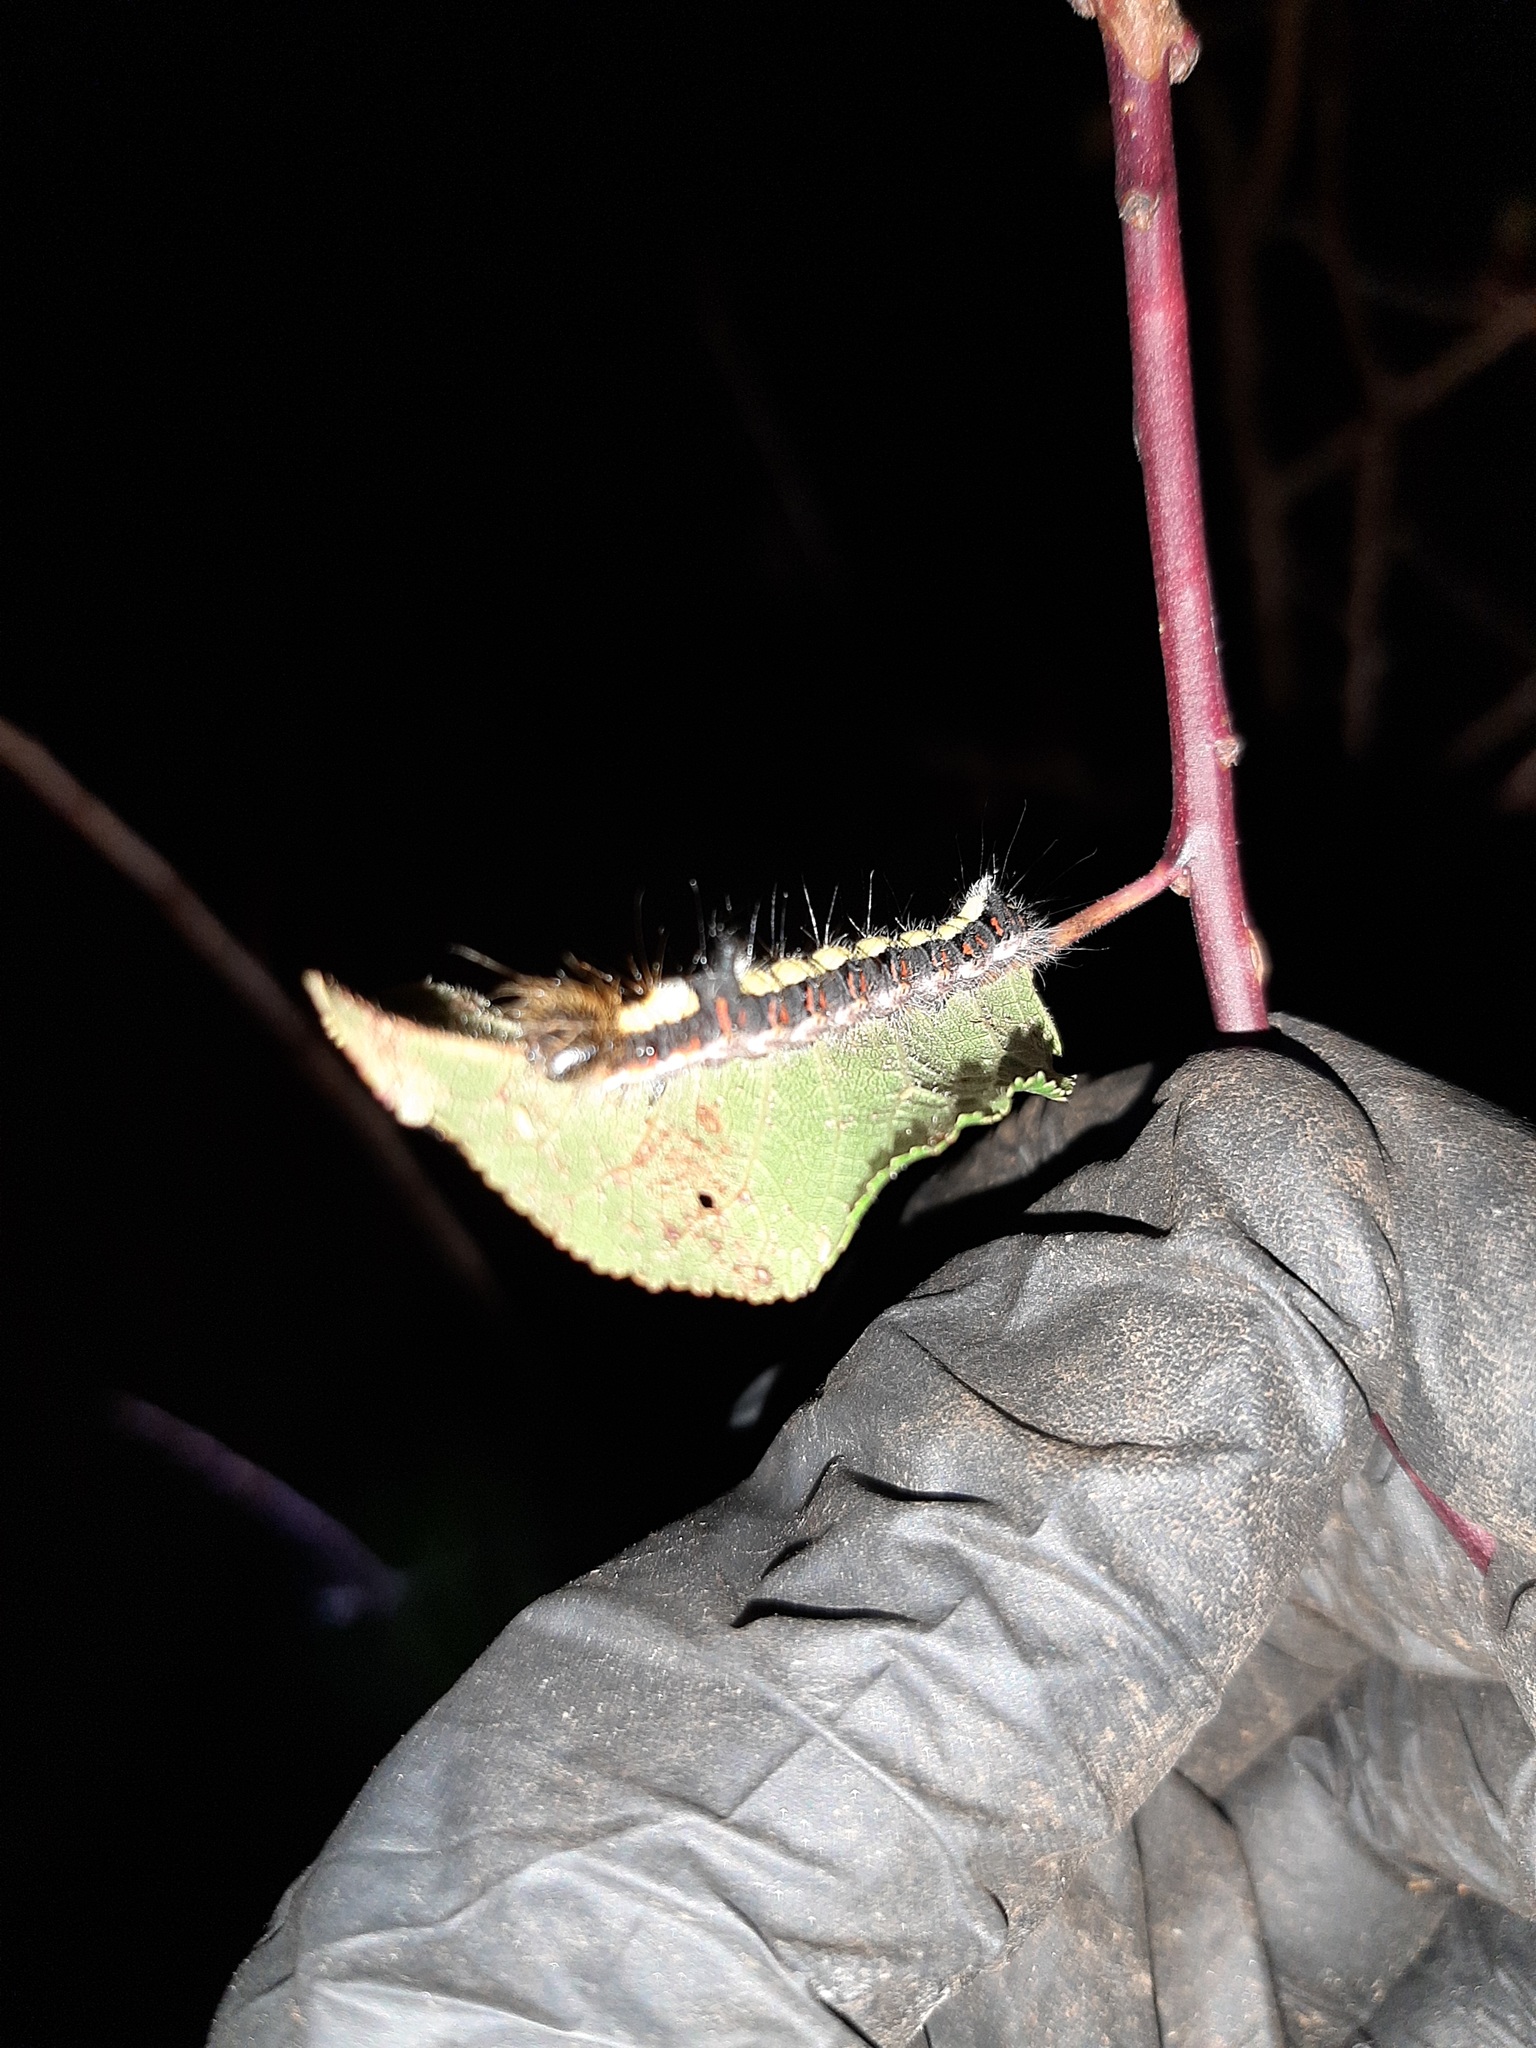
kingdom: Animalia
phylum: Arthropoda
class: Insecta
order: Lepidoptera
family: Noctuidae
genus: Acronicta
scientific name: Acronicta psi
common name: Grey dagger
